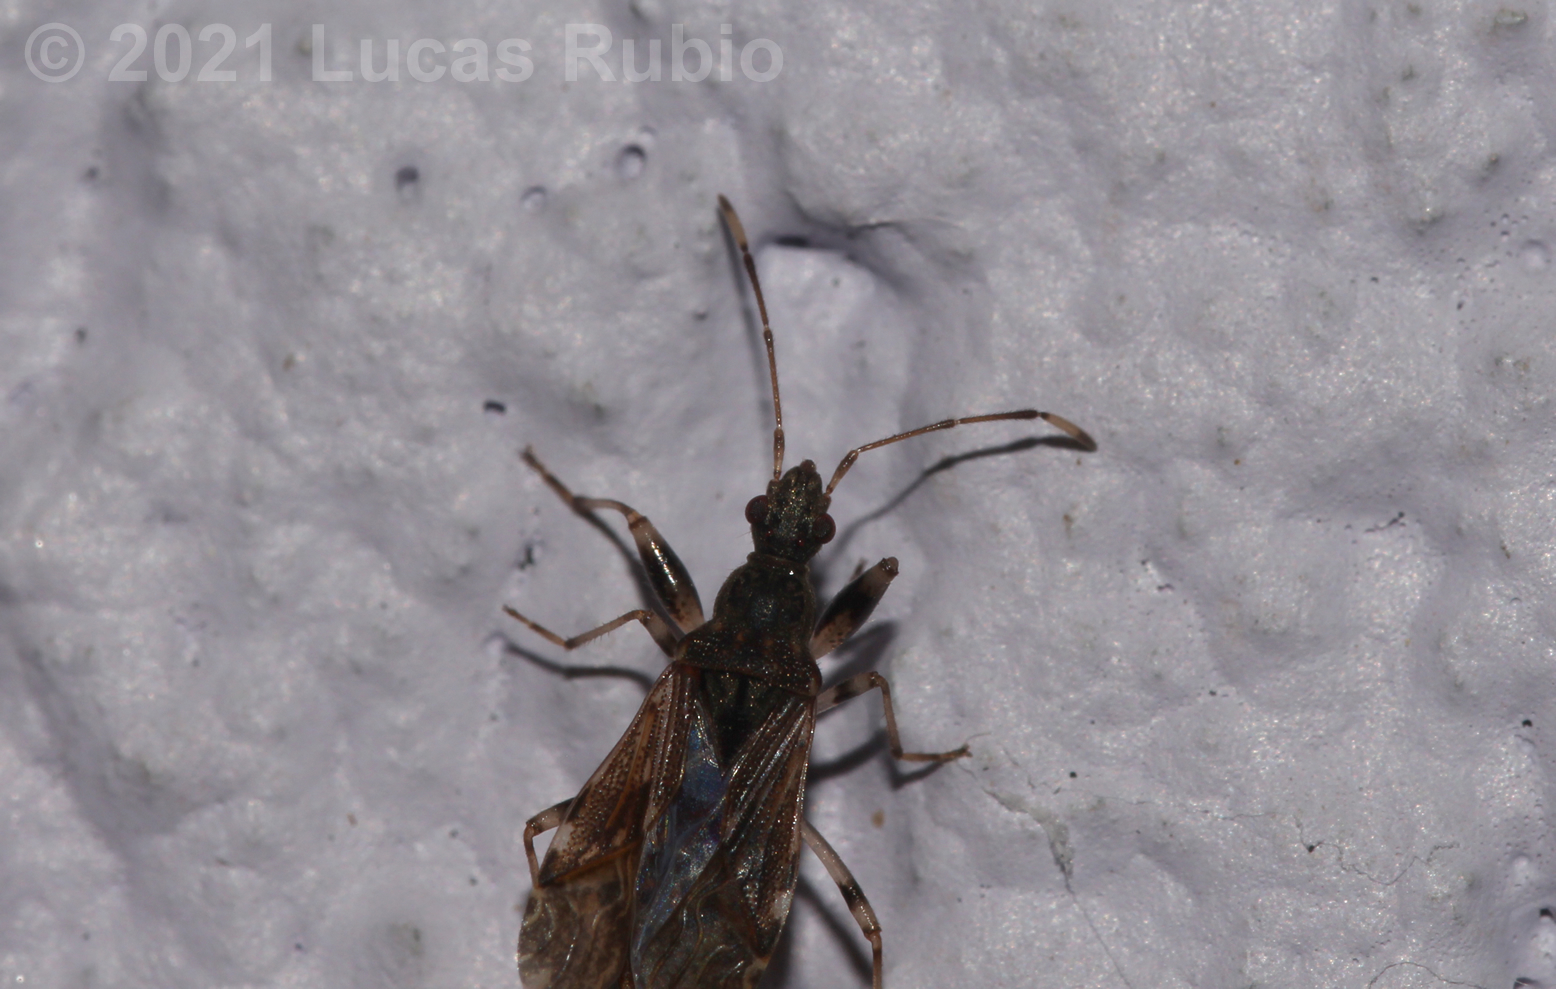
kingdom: Animalia
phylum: Arthropoda
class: Insecta
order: Hemiptera
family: Rhyparochromidae
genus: Paisana
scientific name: Paisana brachialis
